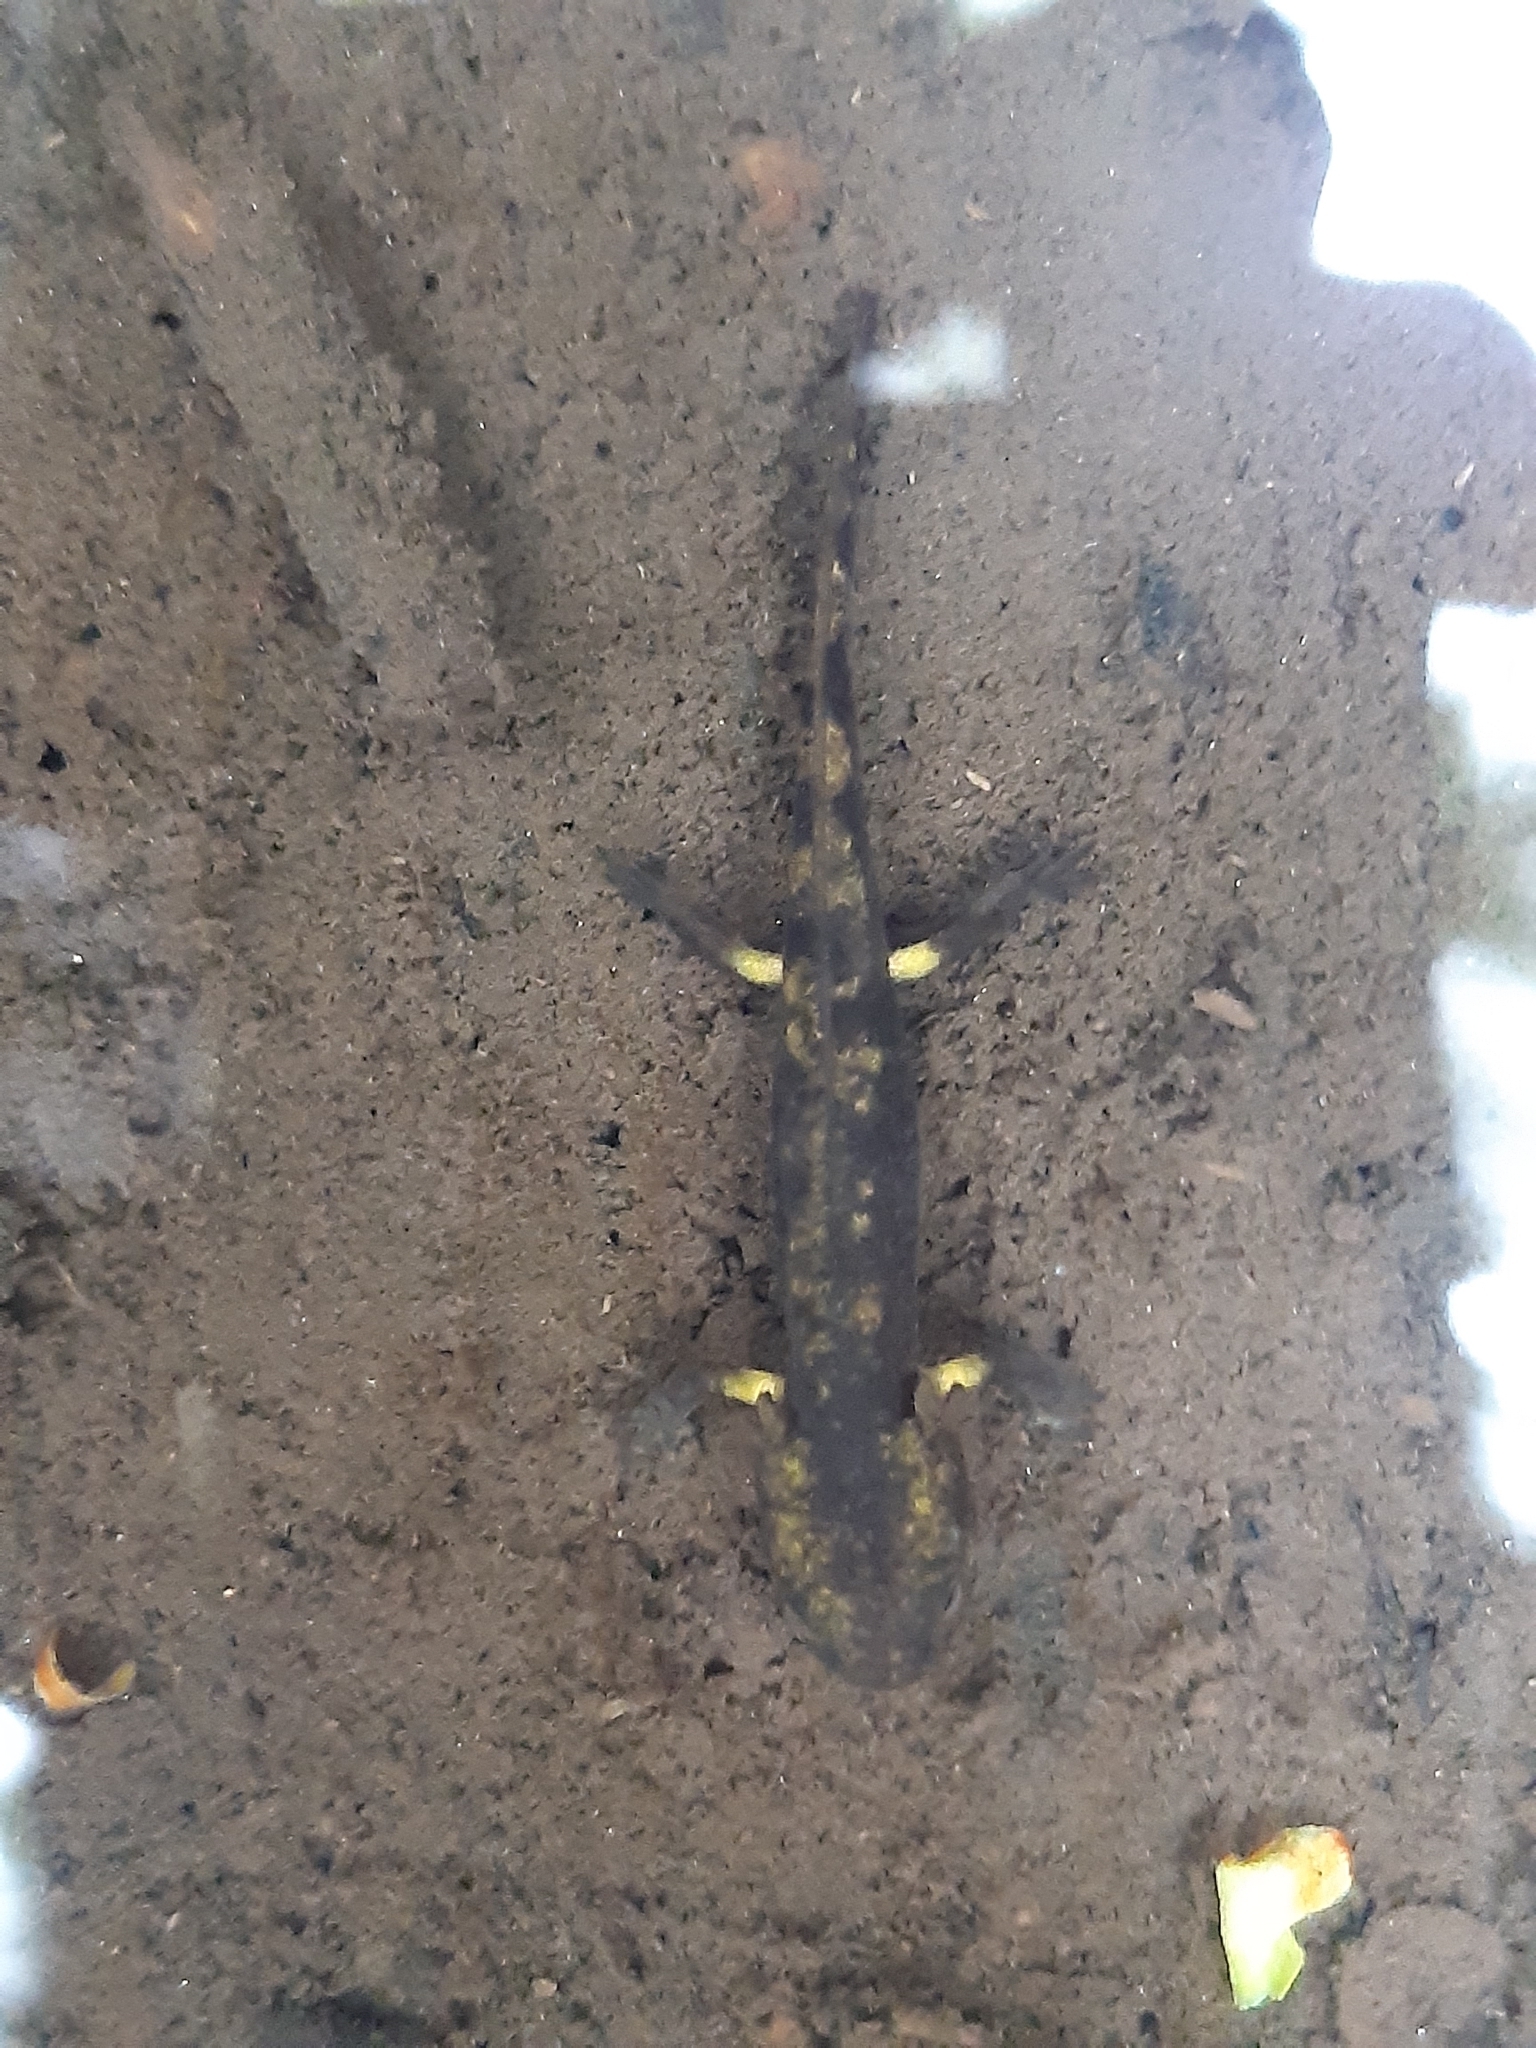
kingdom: Animalia
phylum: Chordata
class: Amphibia
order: Caudata
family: Salamandridae
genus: Salamandra
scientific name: Salamandra salamandra
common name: Fire salamander
